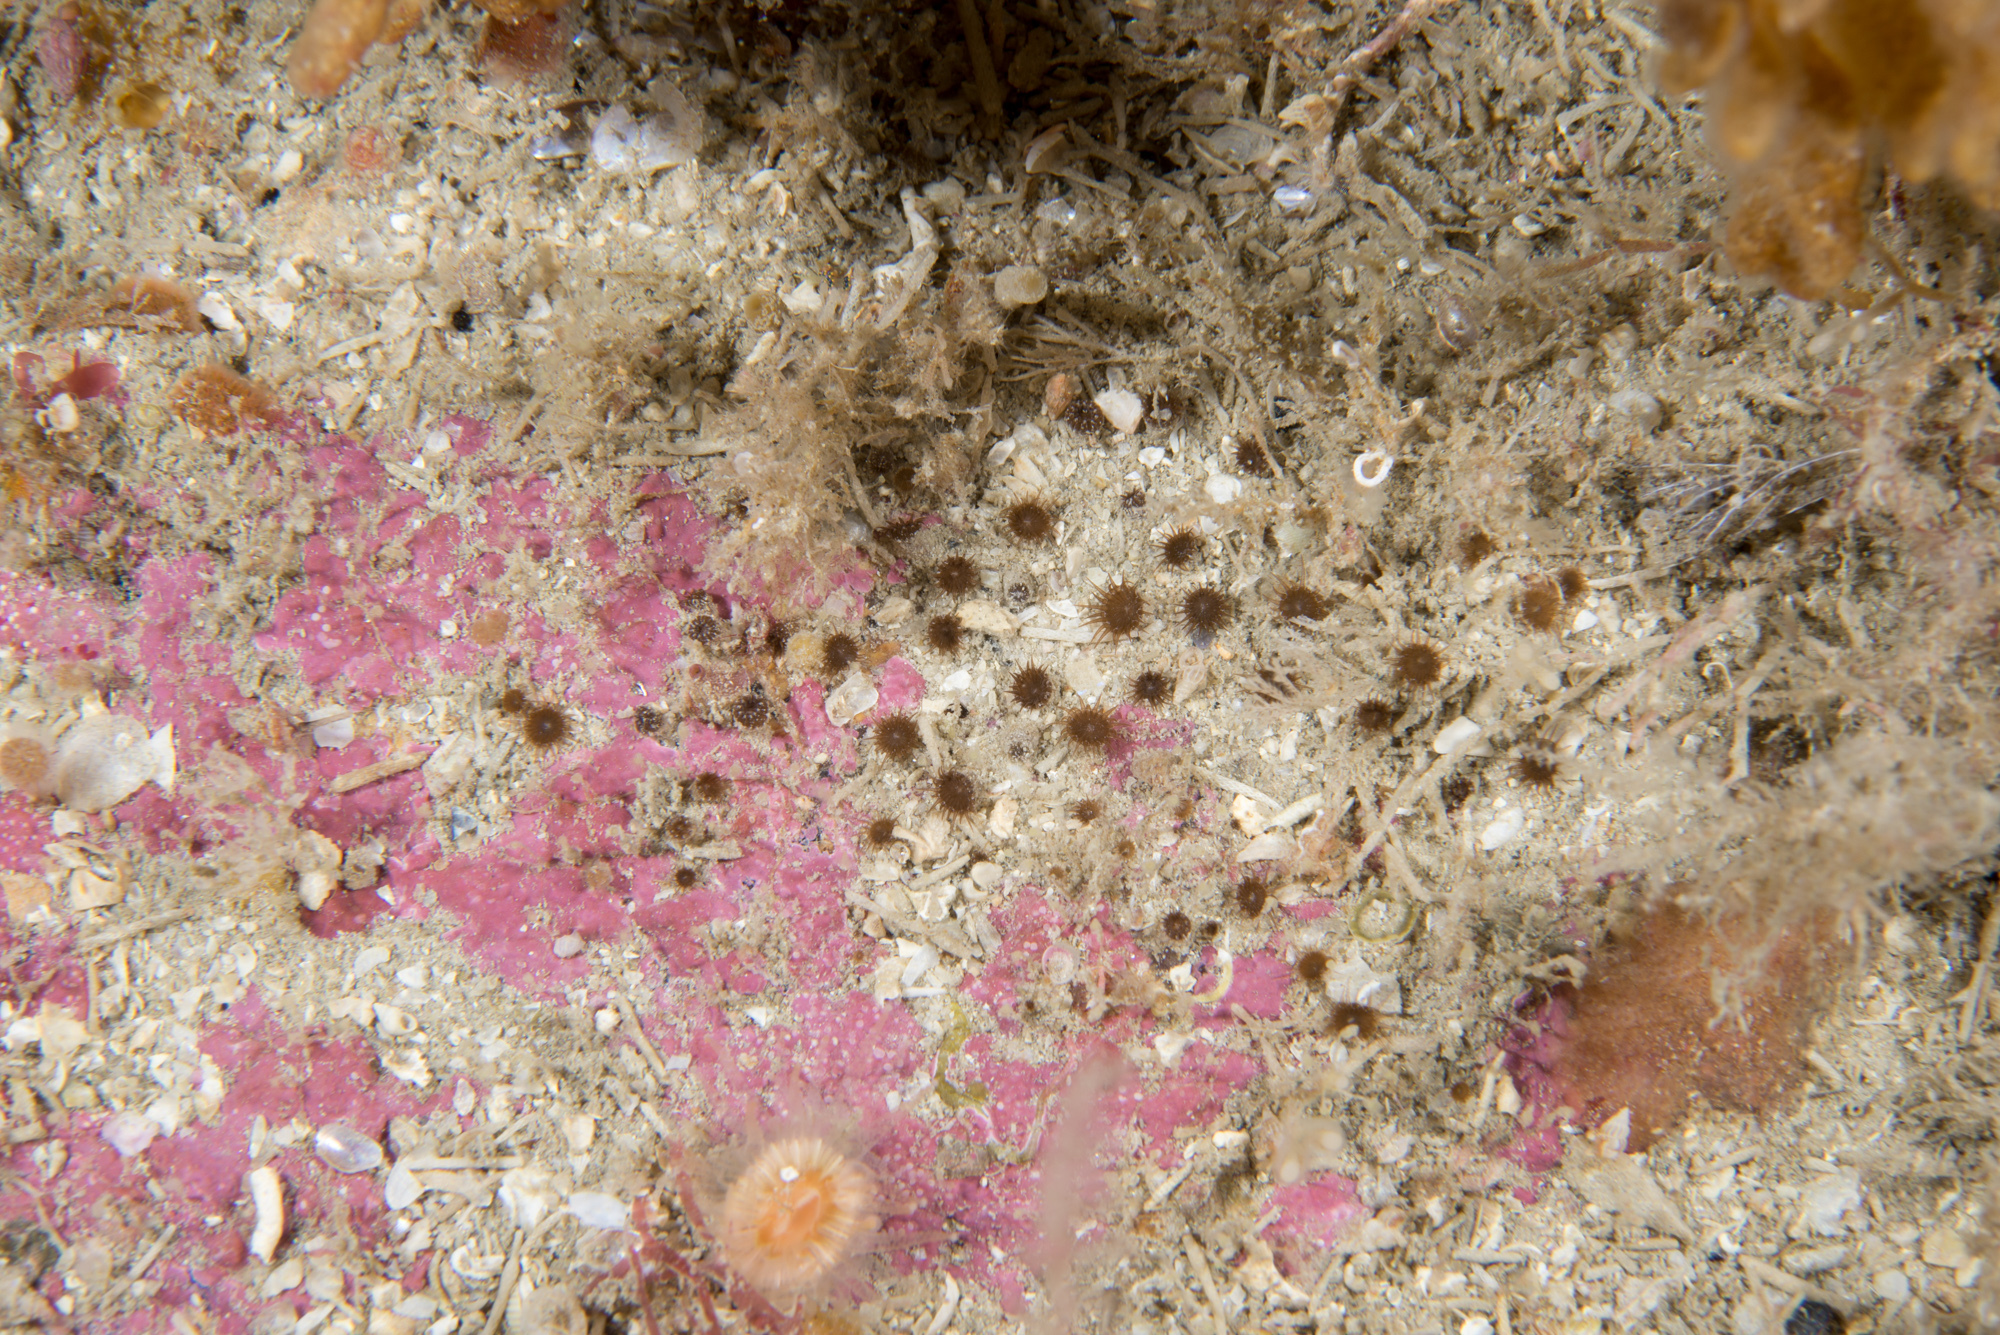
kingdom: Animalia
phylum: Cnidaria
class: Anthozoa
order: Zoantharia
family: Parazoanthidae
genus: Isozoanthus
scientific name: Isozoanthus sulcatus
